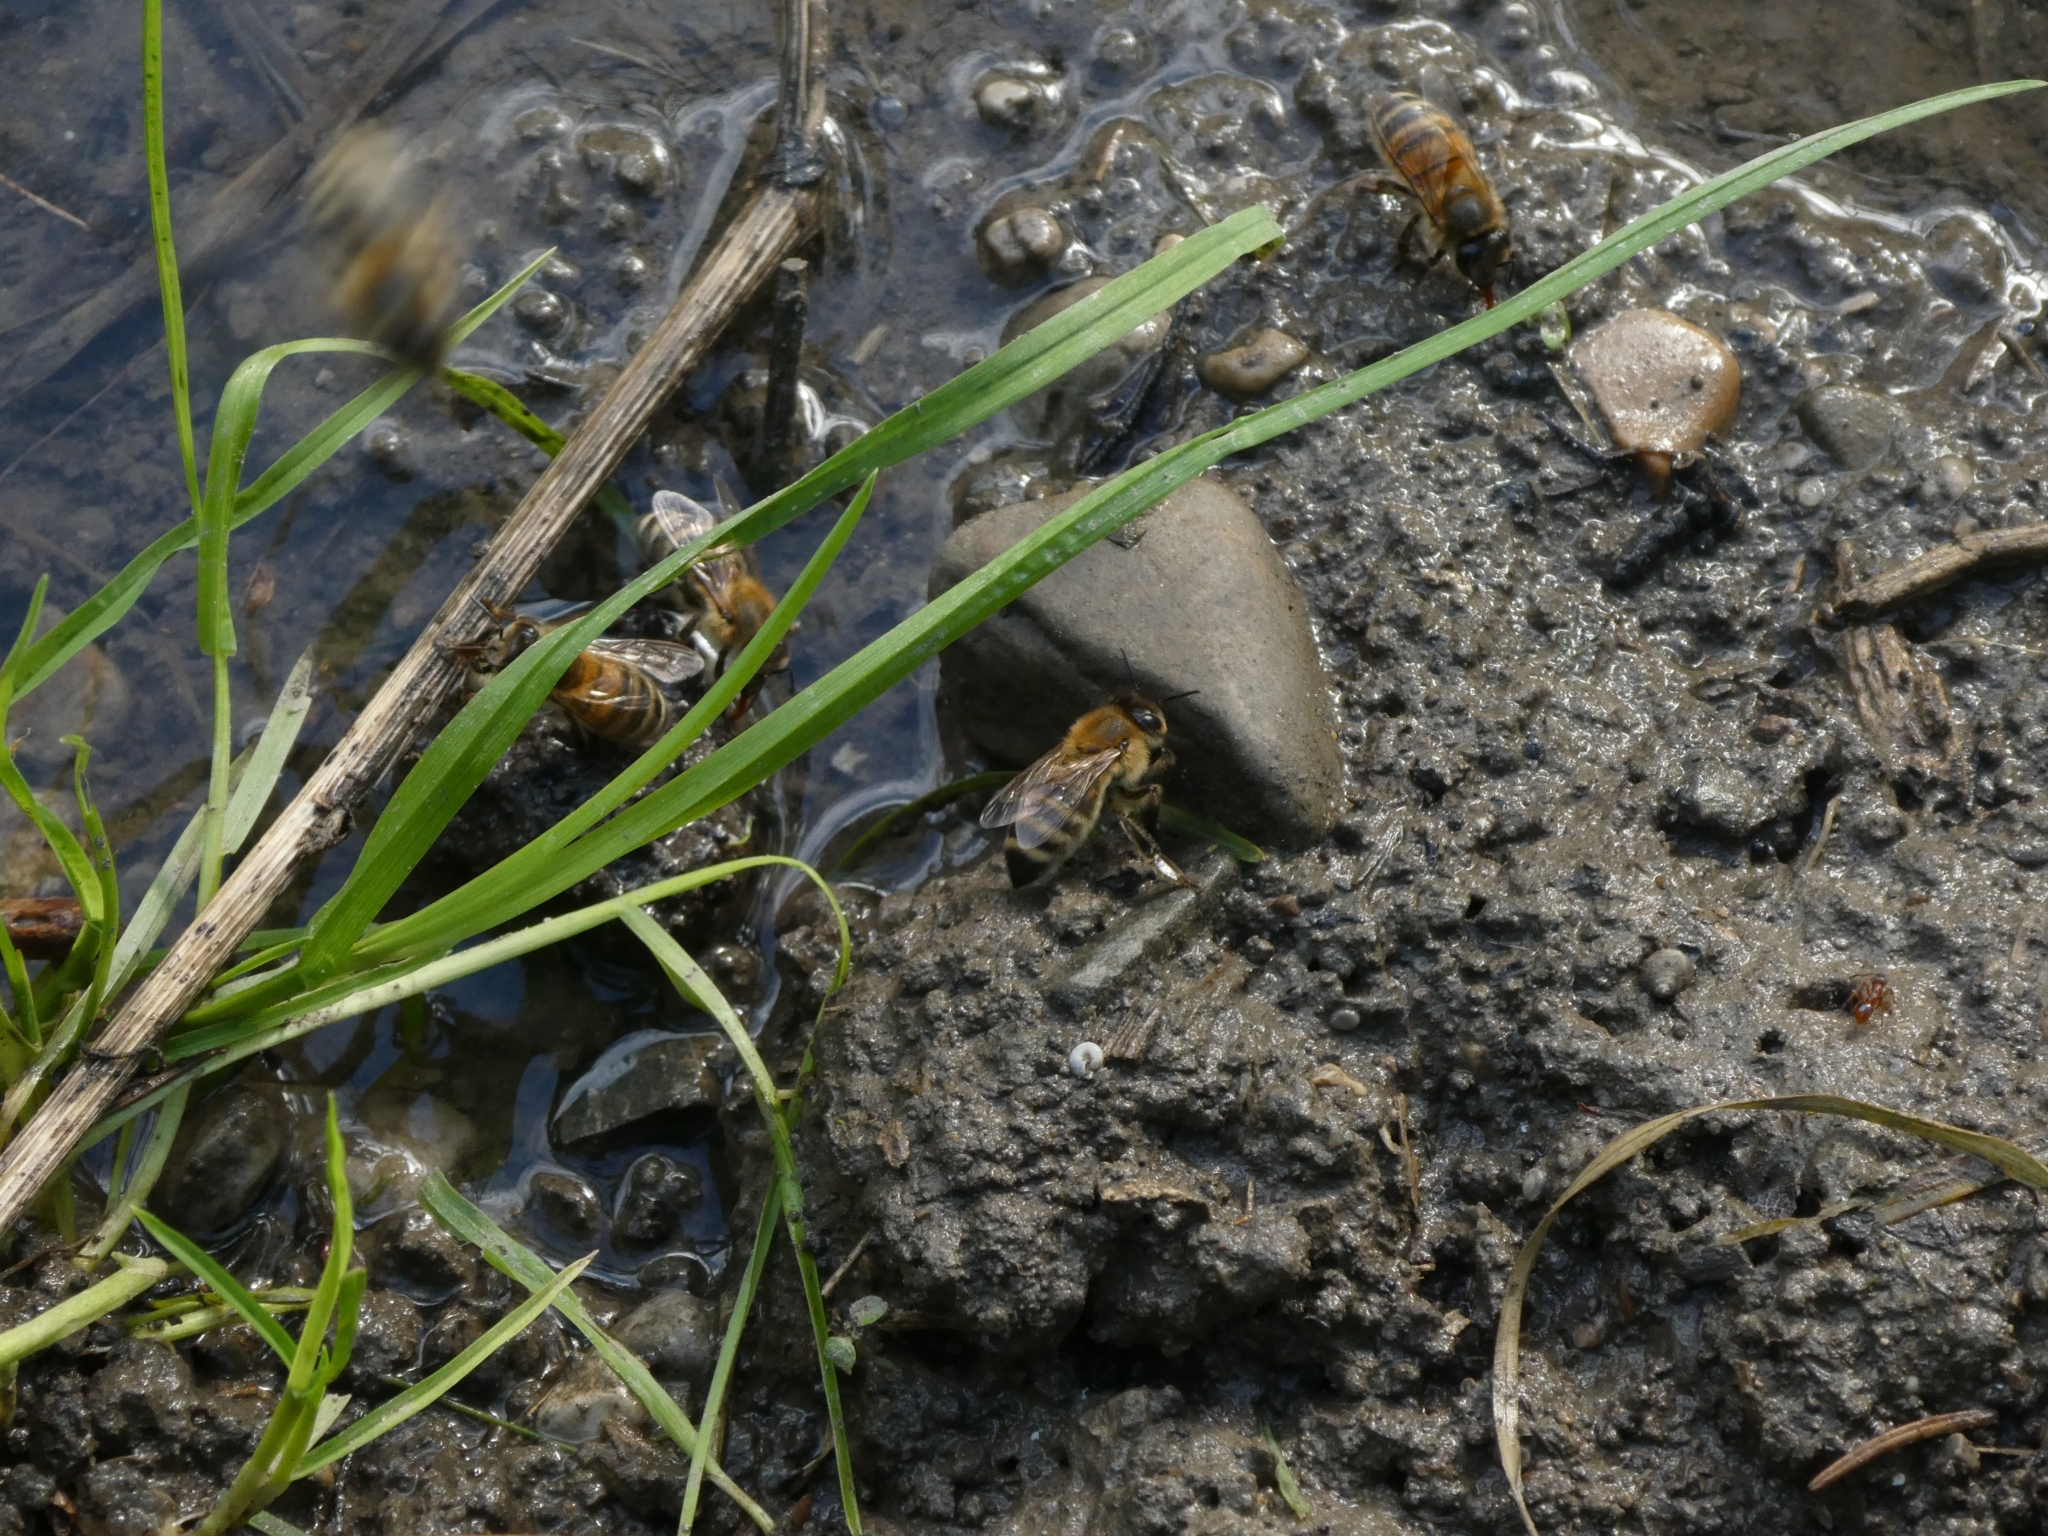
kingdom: Animalia
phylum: Arthropoda
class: Insecta
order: Hymenoptera
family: Apidae
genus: Apis
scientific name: Apis mellifera
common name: Honey bee
